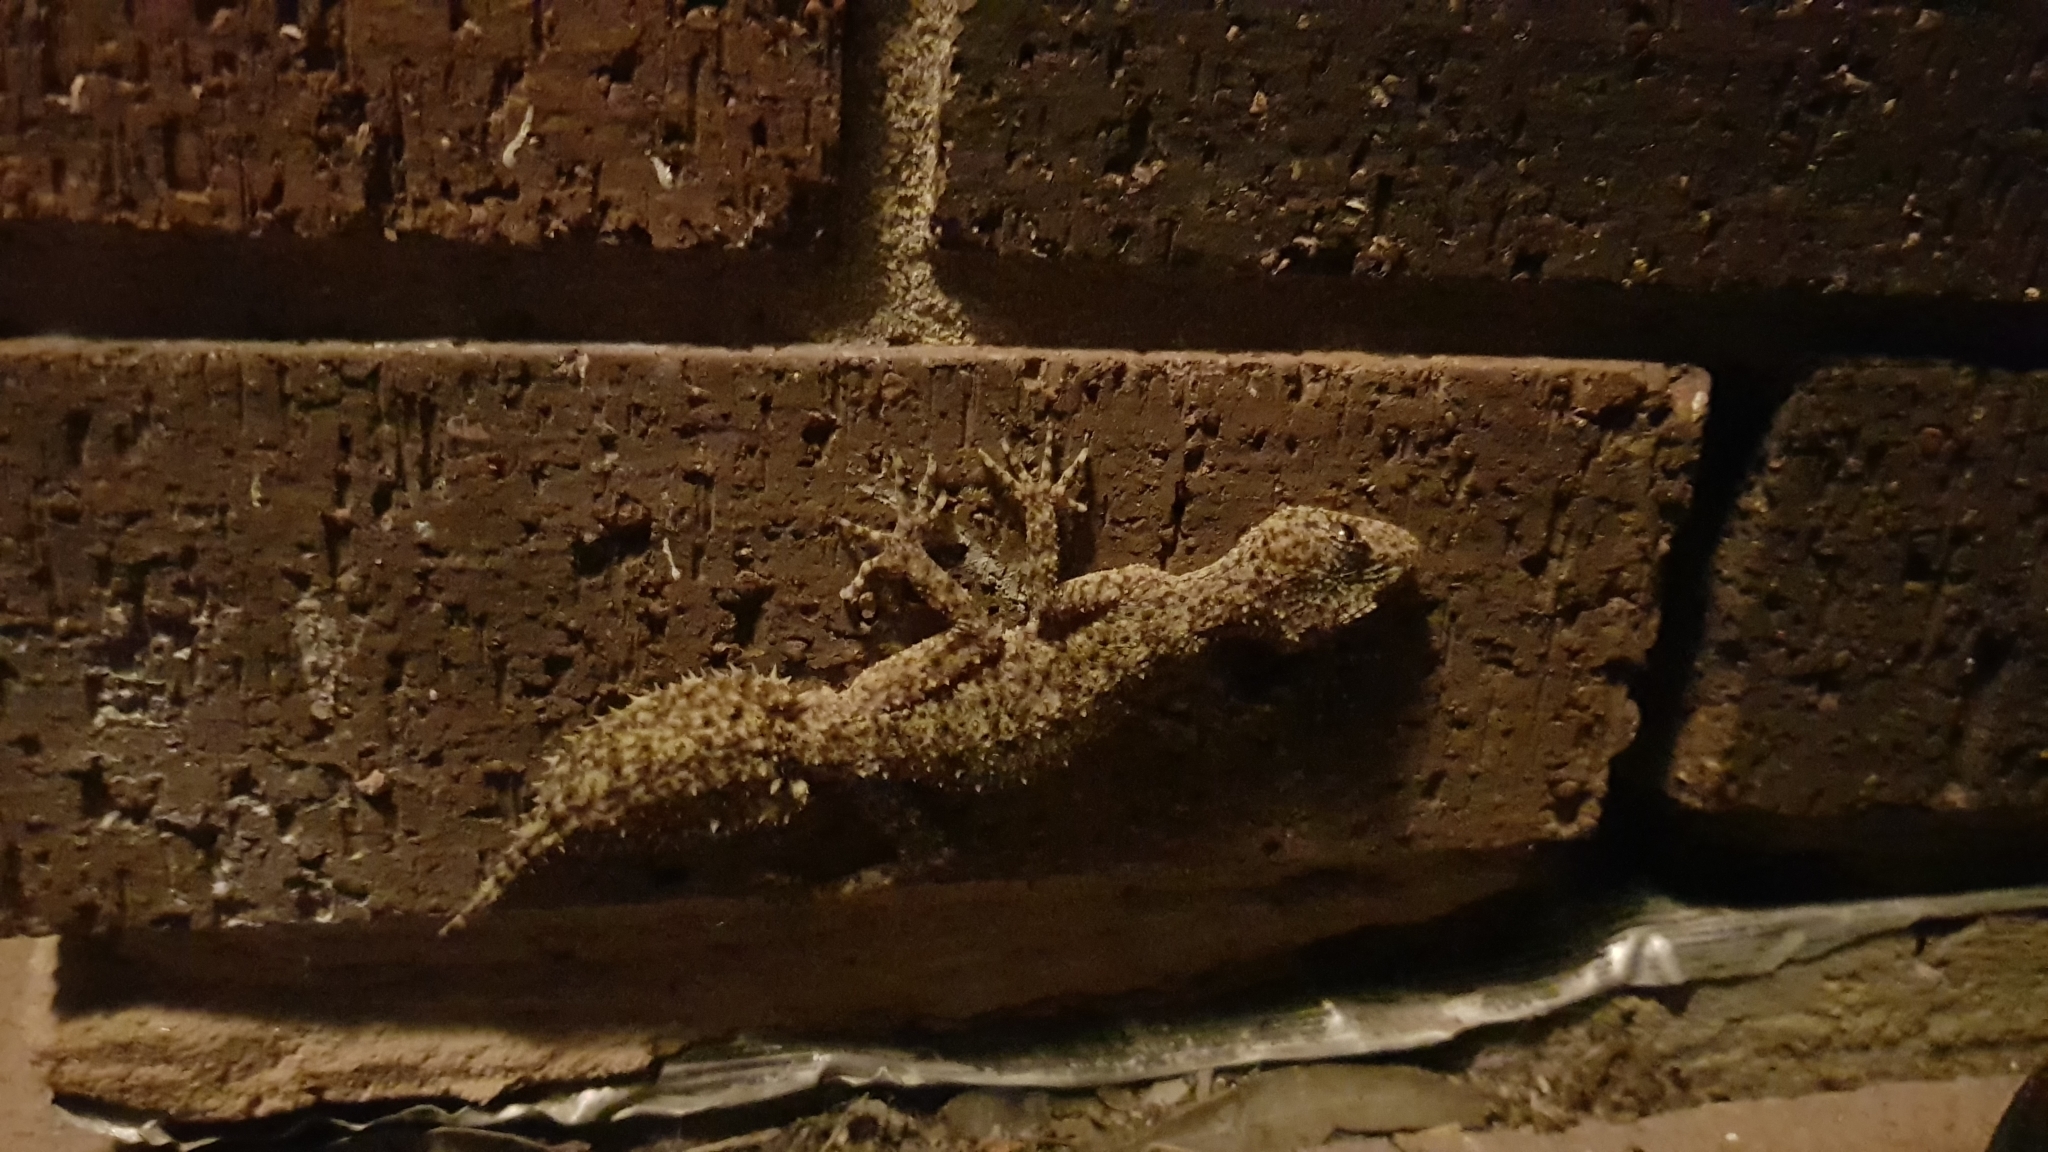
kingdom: Animalia
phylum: Chordata
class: Squamata
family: Carphodactylidae
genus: Phyllurus
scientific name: Phyllurus platurus
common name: Broad-tailed gecko
